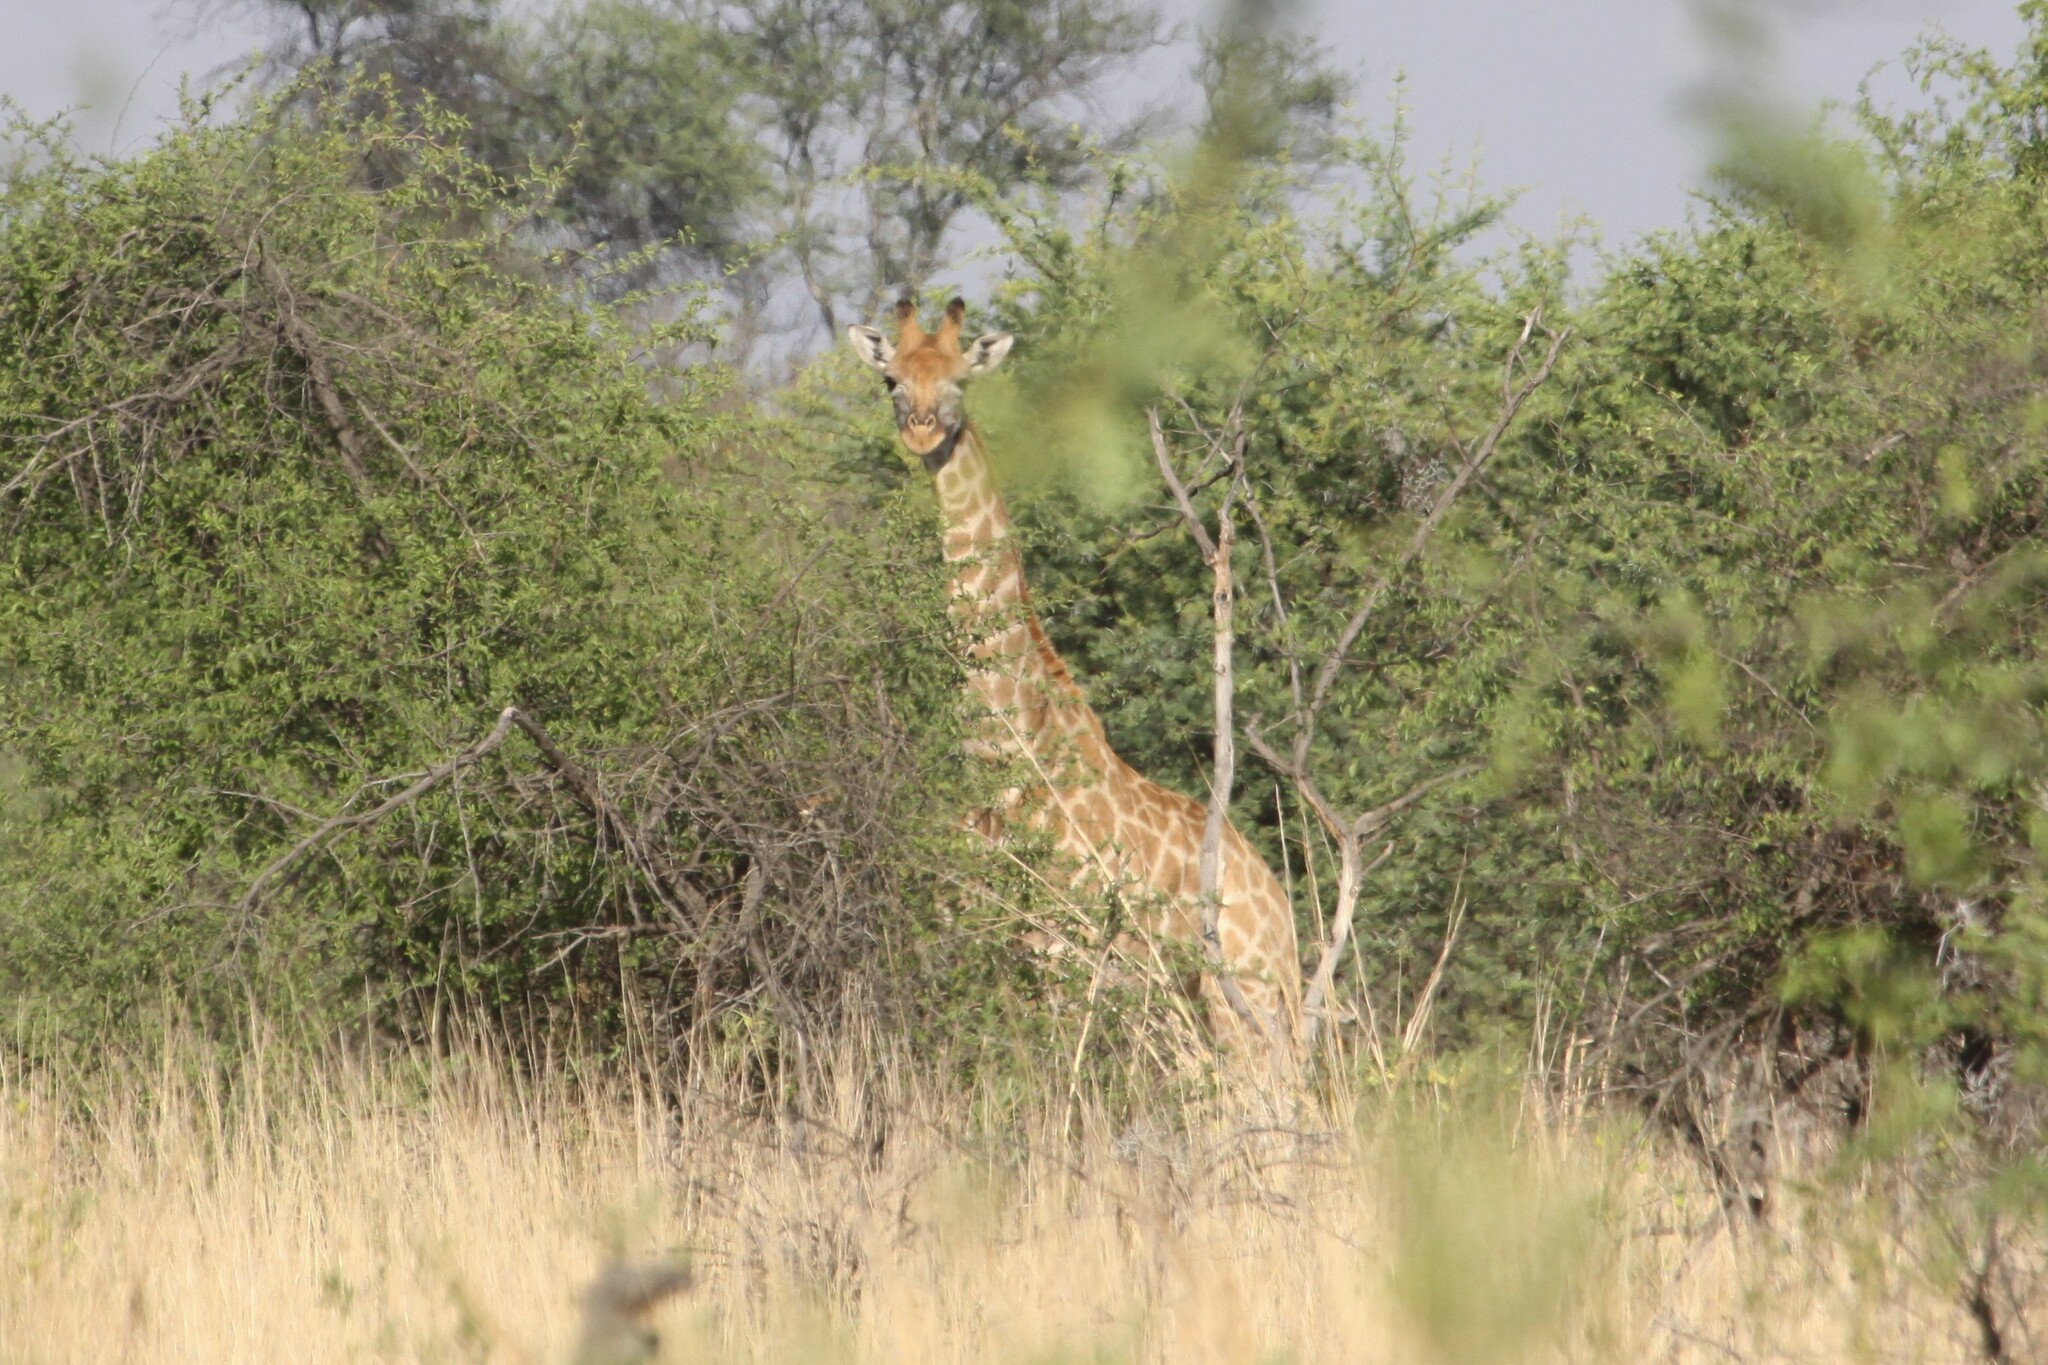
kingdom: Animalia
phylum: Chordata
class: Mammalia
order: Artiodactyla
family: Giraffidae
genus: Giraffa
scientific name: Giraffa giraffa
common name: Southern giraffe
